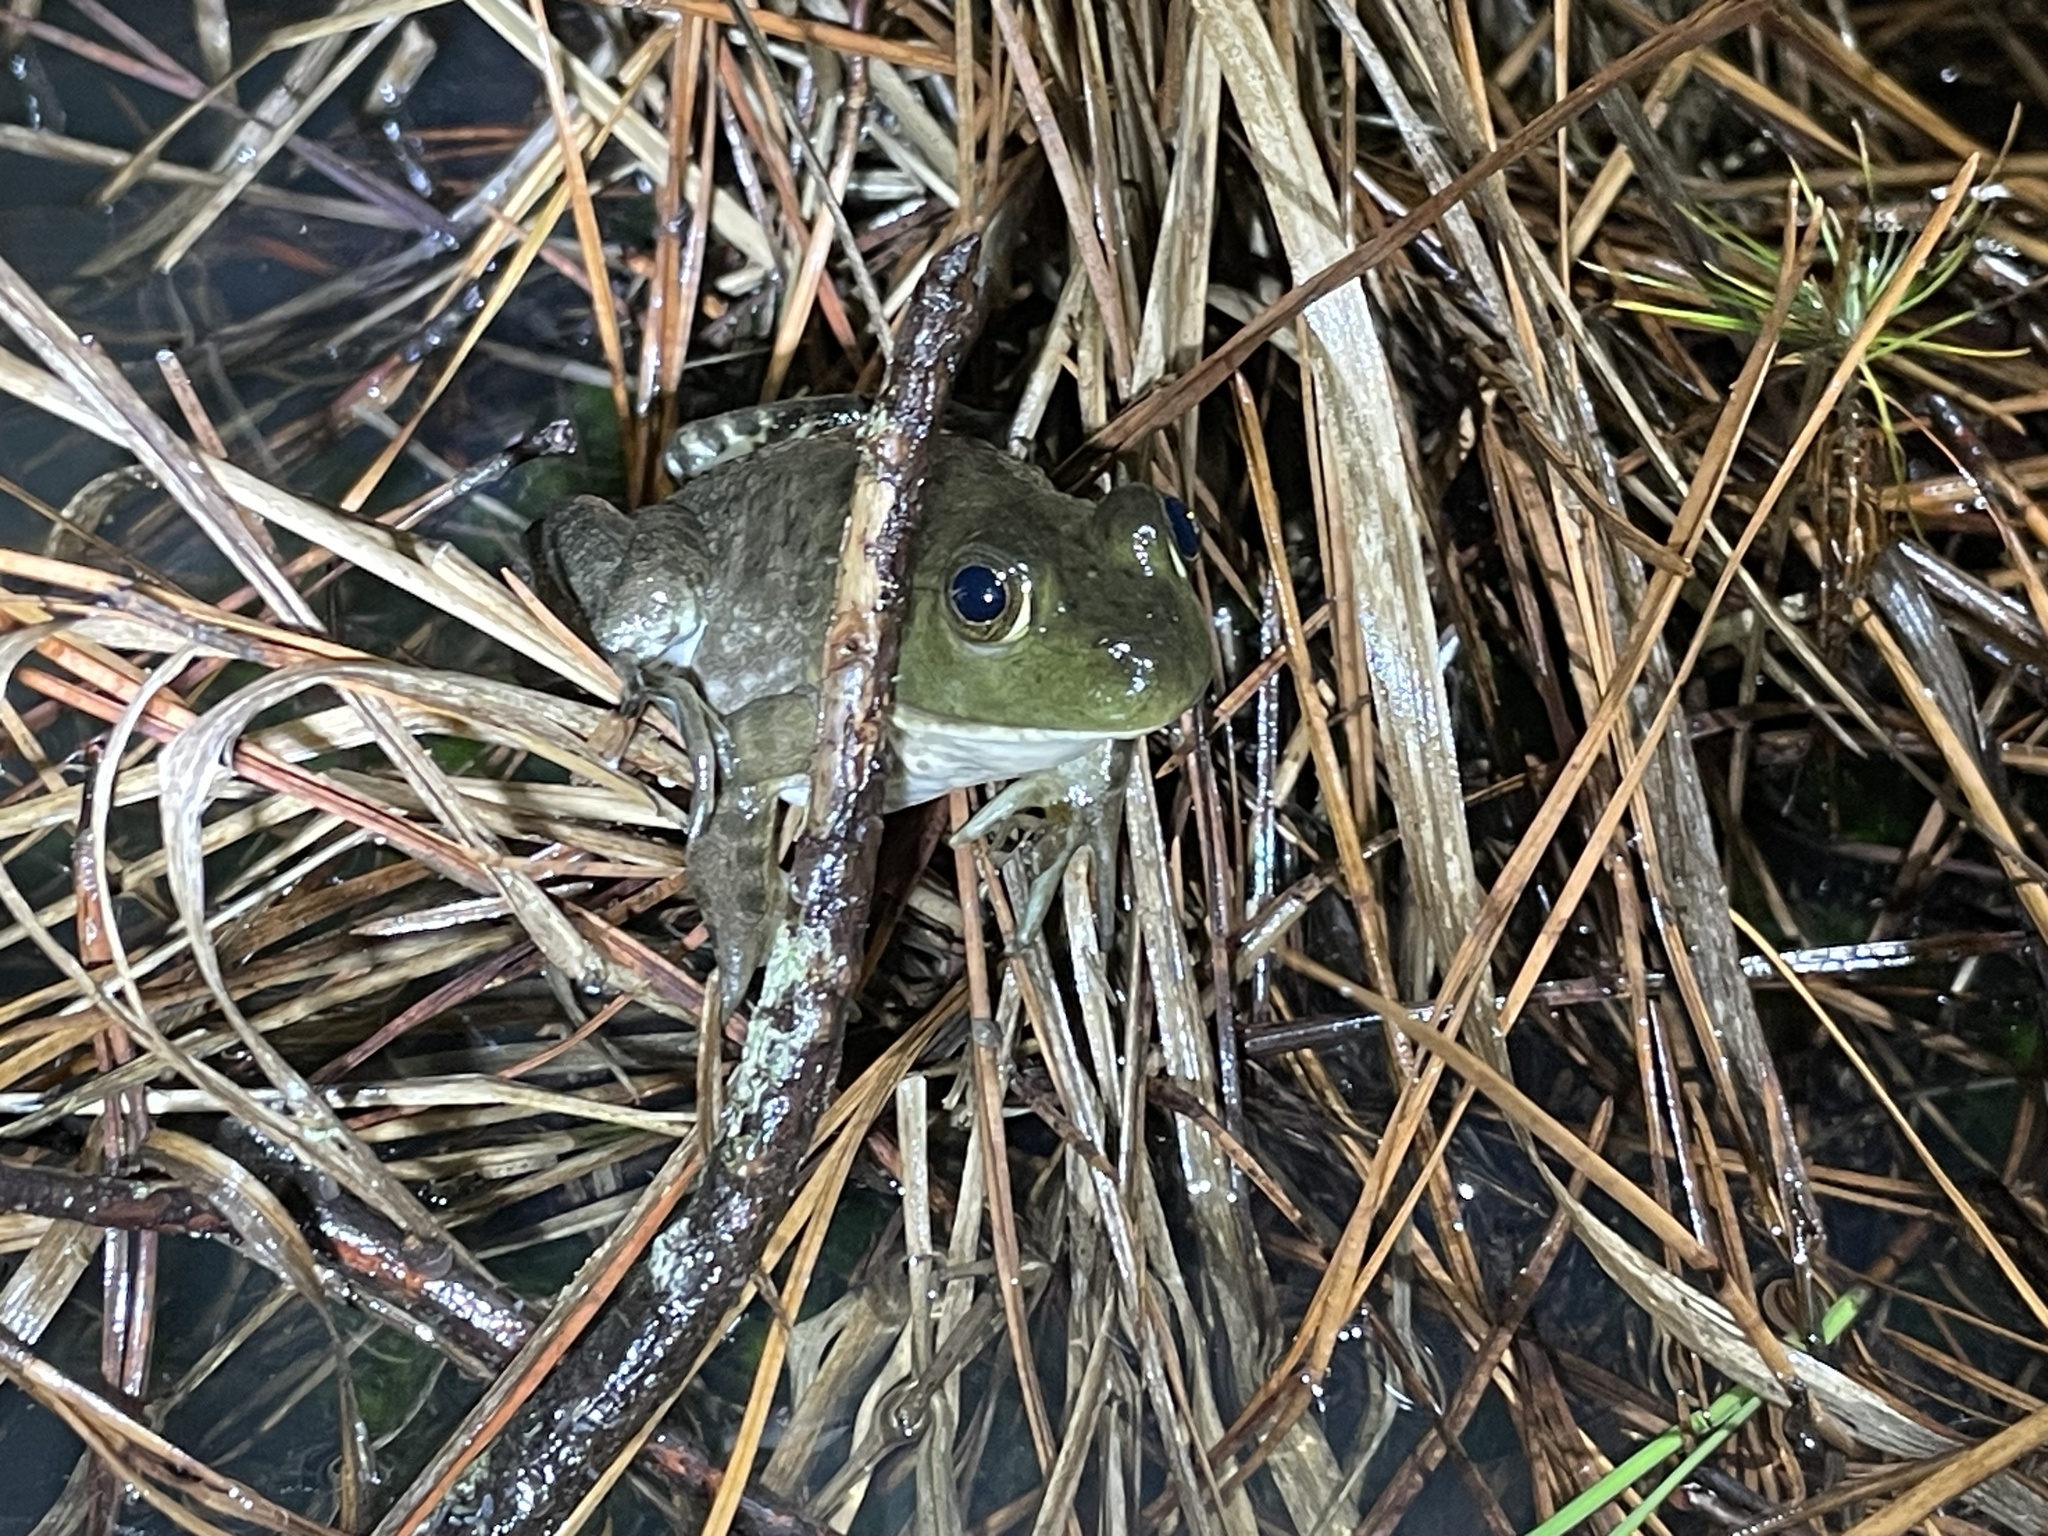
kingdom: Animalia
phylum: Chordata
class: Amphibia
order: Anura
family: Ranidae
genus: Lithobates
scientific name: Lithobates catesbeianus
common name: American bullfrog
